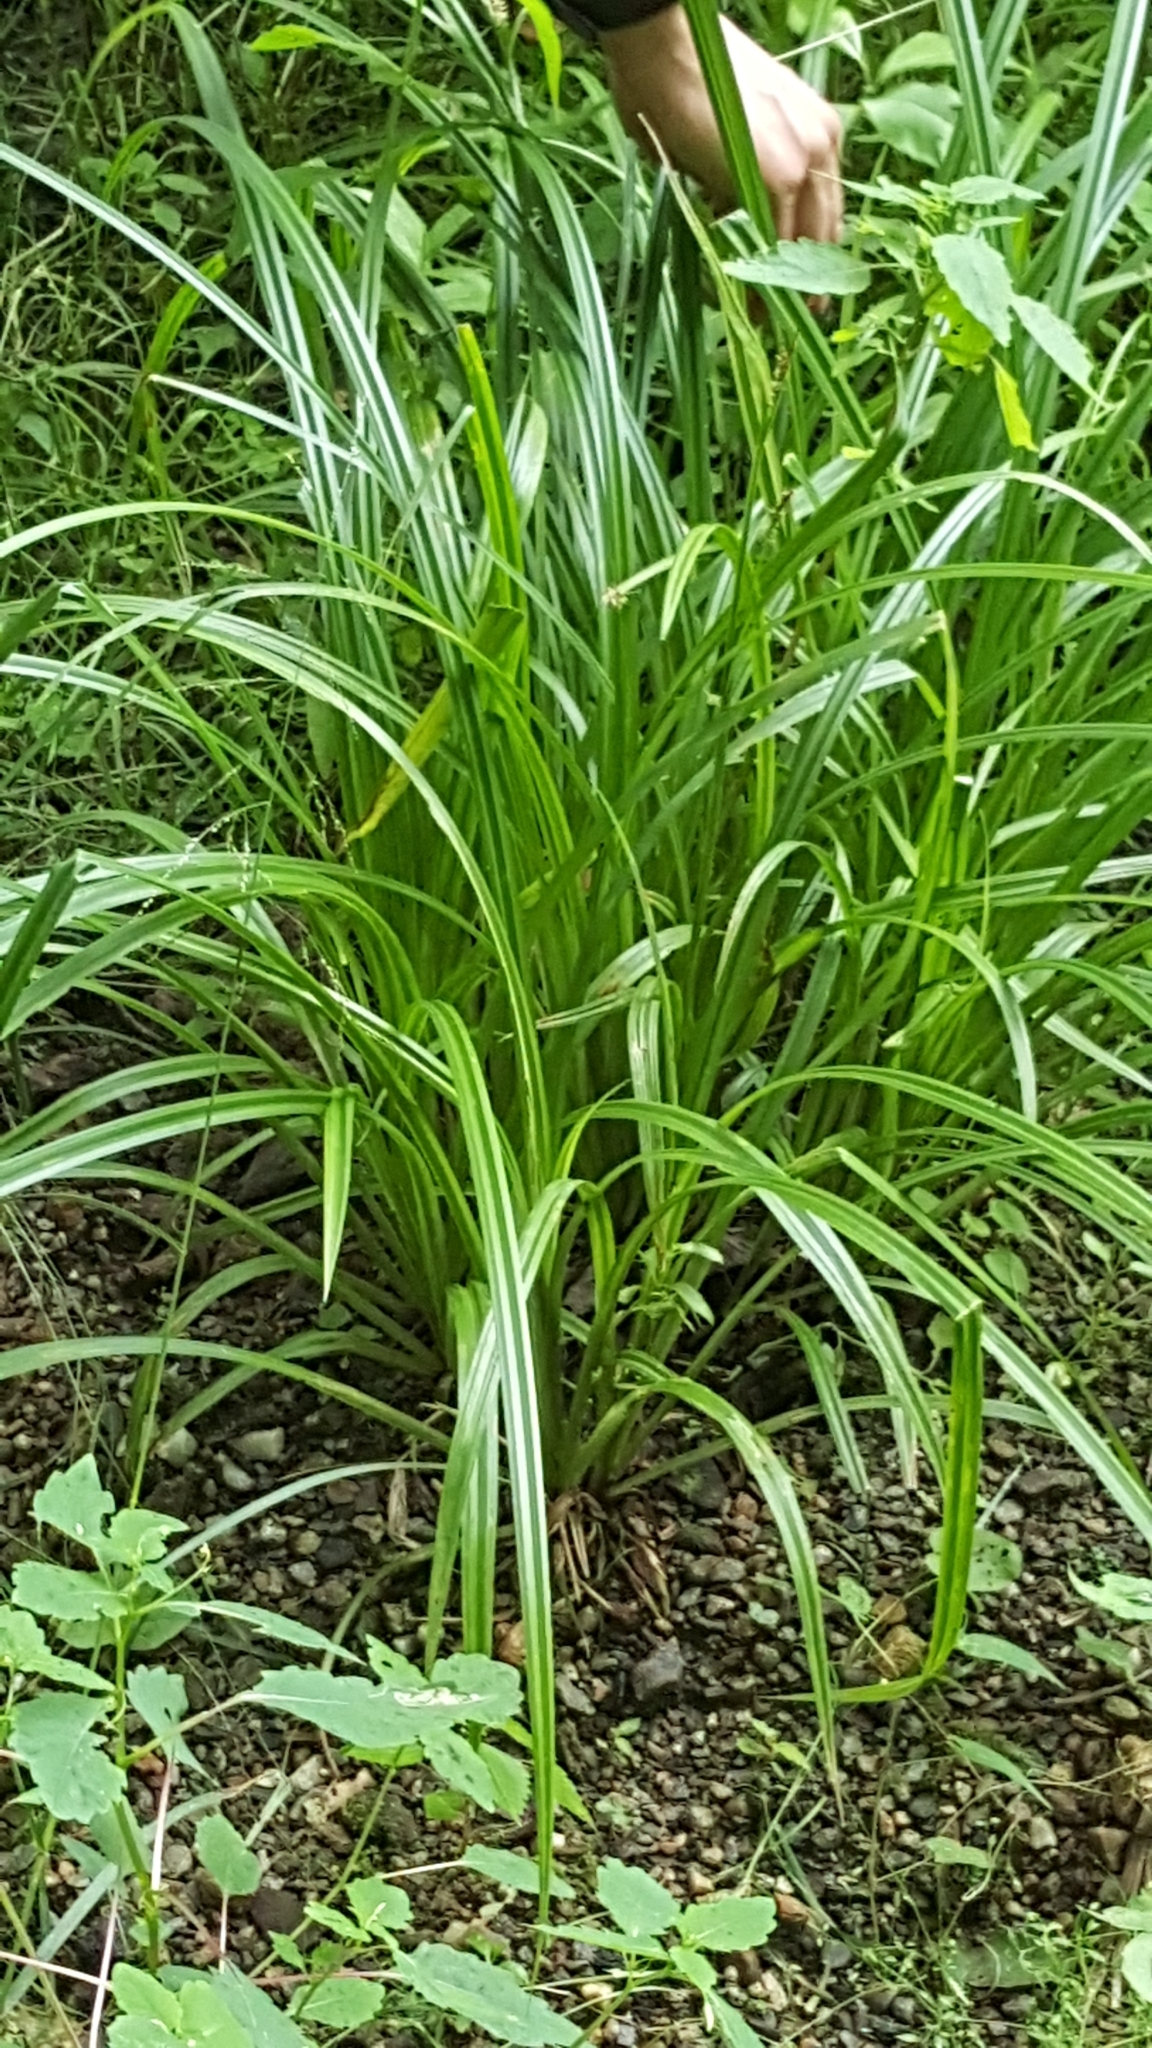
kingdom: Plantae
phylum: Tracheophyta
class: Liliopsida
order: Poales
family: Cyperaceae
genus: Carex
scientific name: Carex scabrata
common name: Eastern rough sedge
